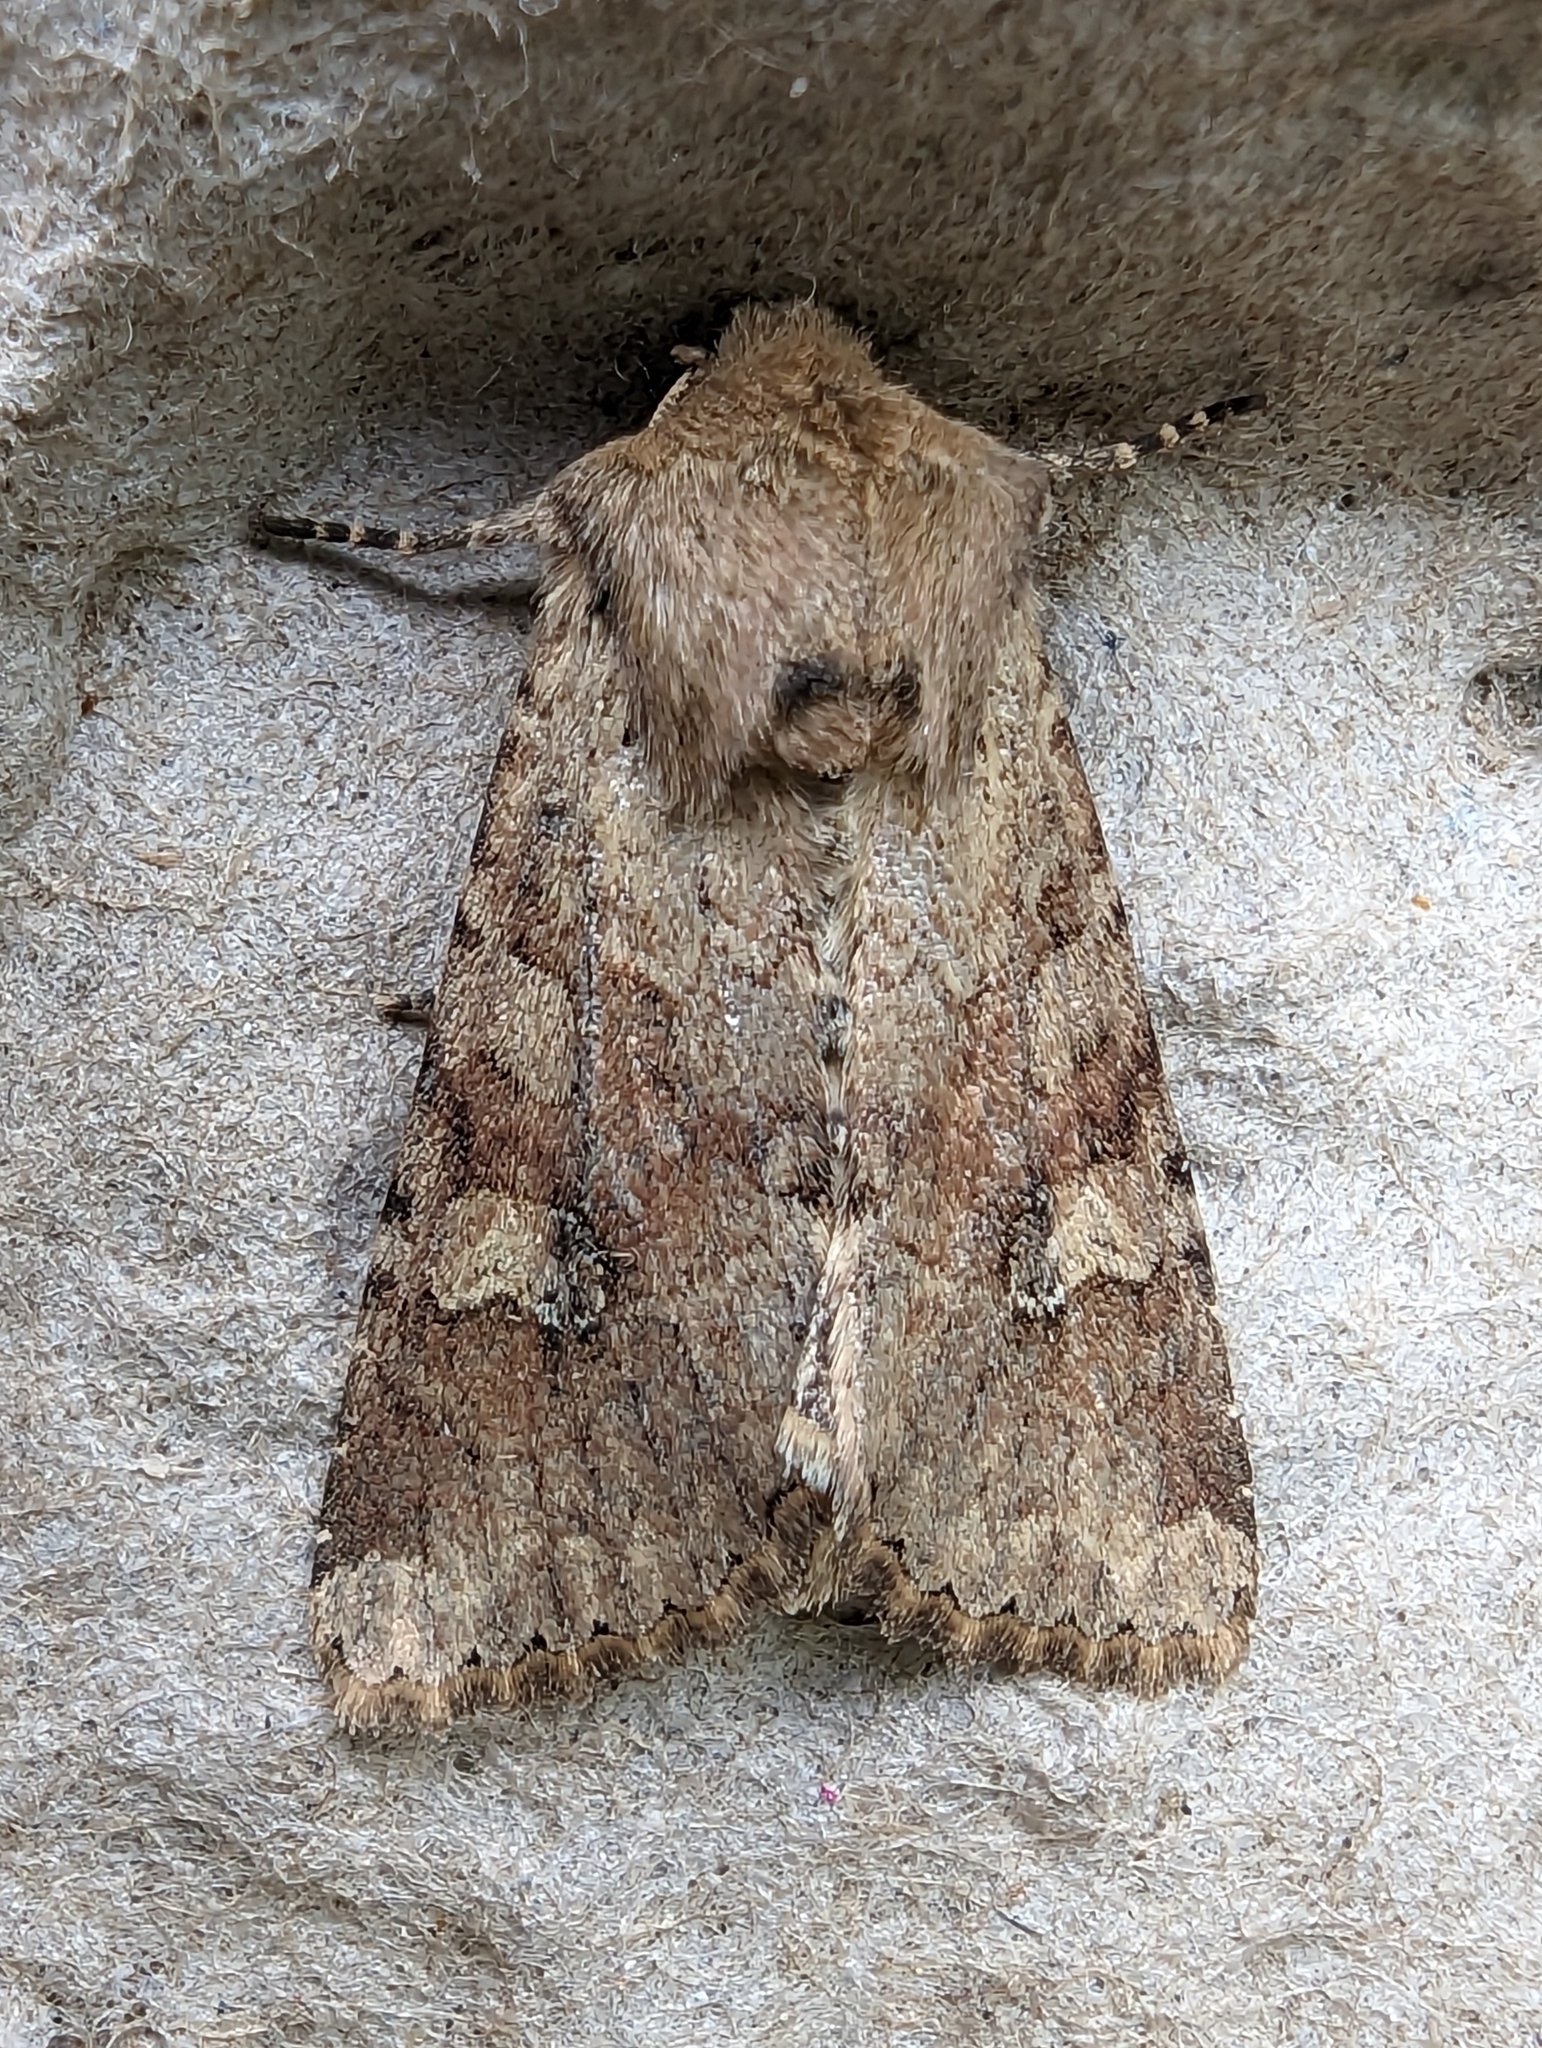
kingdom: Animalia
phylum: Arthropoda
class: Insecta
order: Lepidoptera
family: Noctuidae
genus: Apamea
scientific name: Apamea sordens
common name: Rustic shoulder-knot
